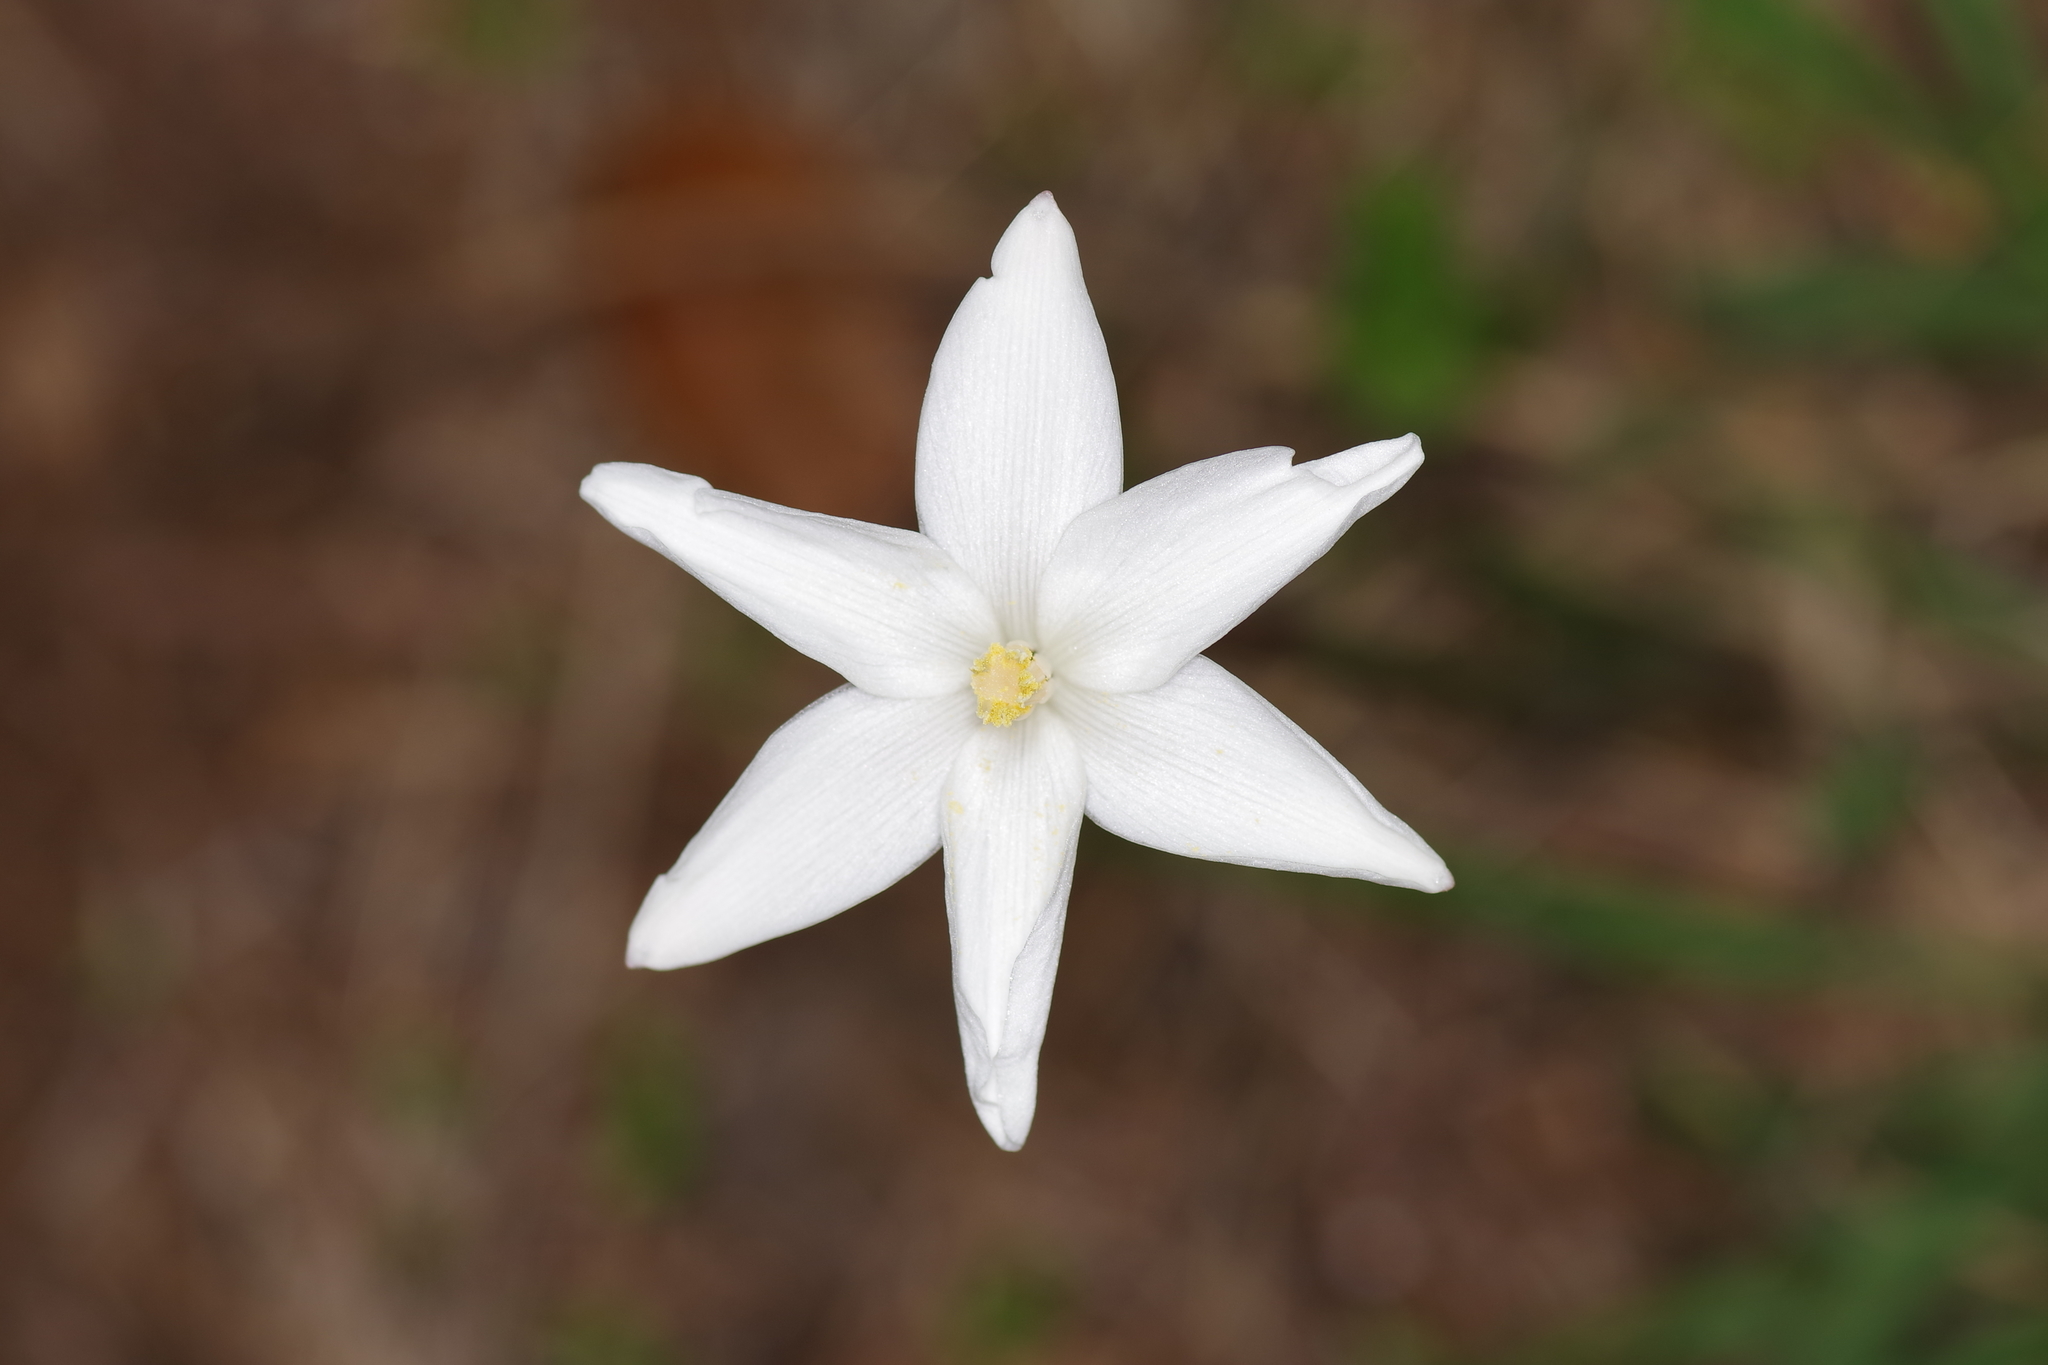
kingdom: Plantae
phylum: Tracheophyta
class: Liliopsida
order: Asparagales
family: Amaryllidaceae
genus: Zephyranthes
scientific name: Zephyranthes chlorosolen
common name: Evening rain-lily
